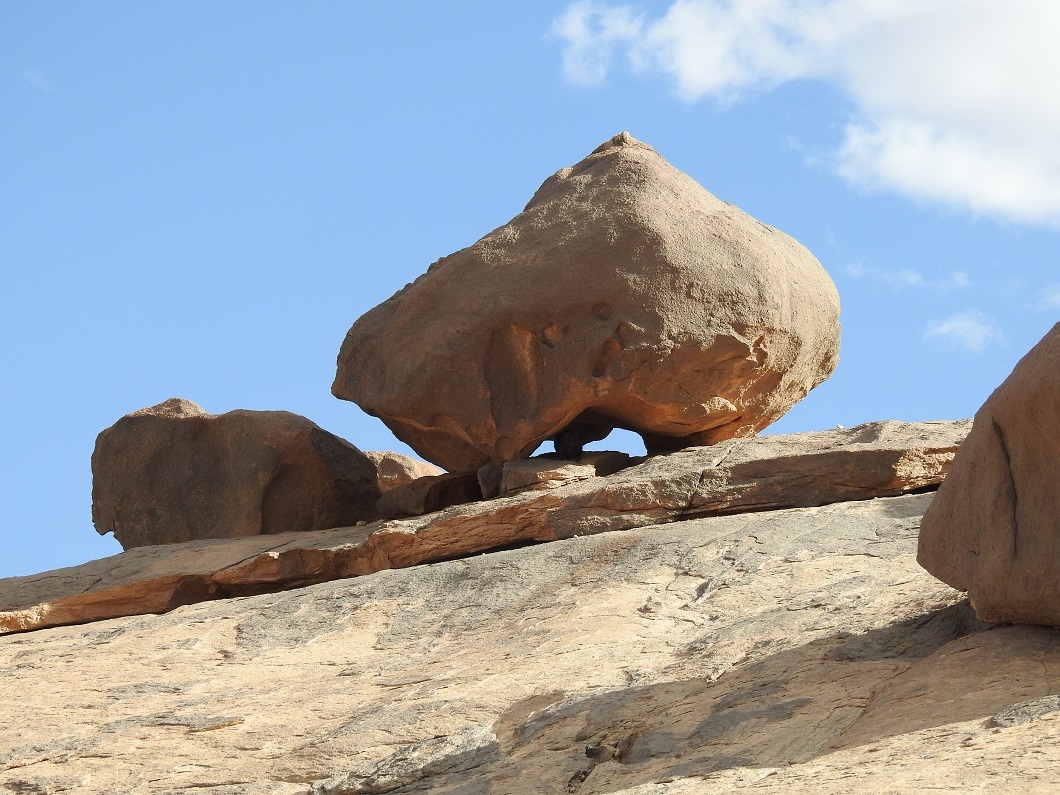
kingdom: Animalia
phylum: Chordata
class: Mammalia
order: Hyracoidea
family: Procaviidae
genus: Procavia
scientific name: Procavia capensis
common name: Rock hyrax
